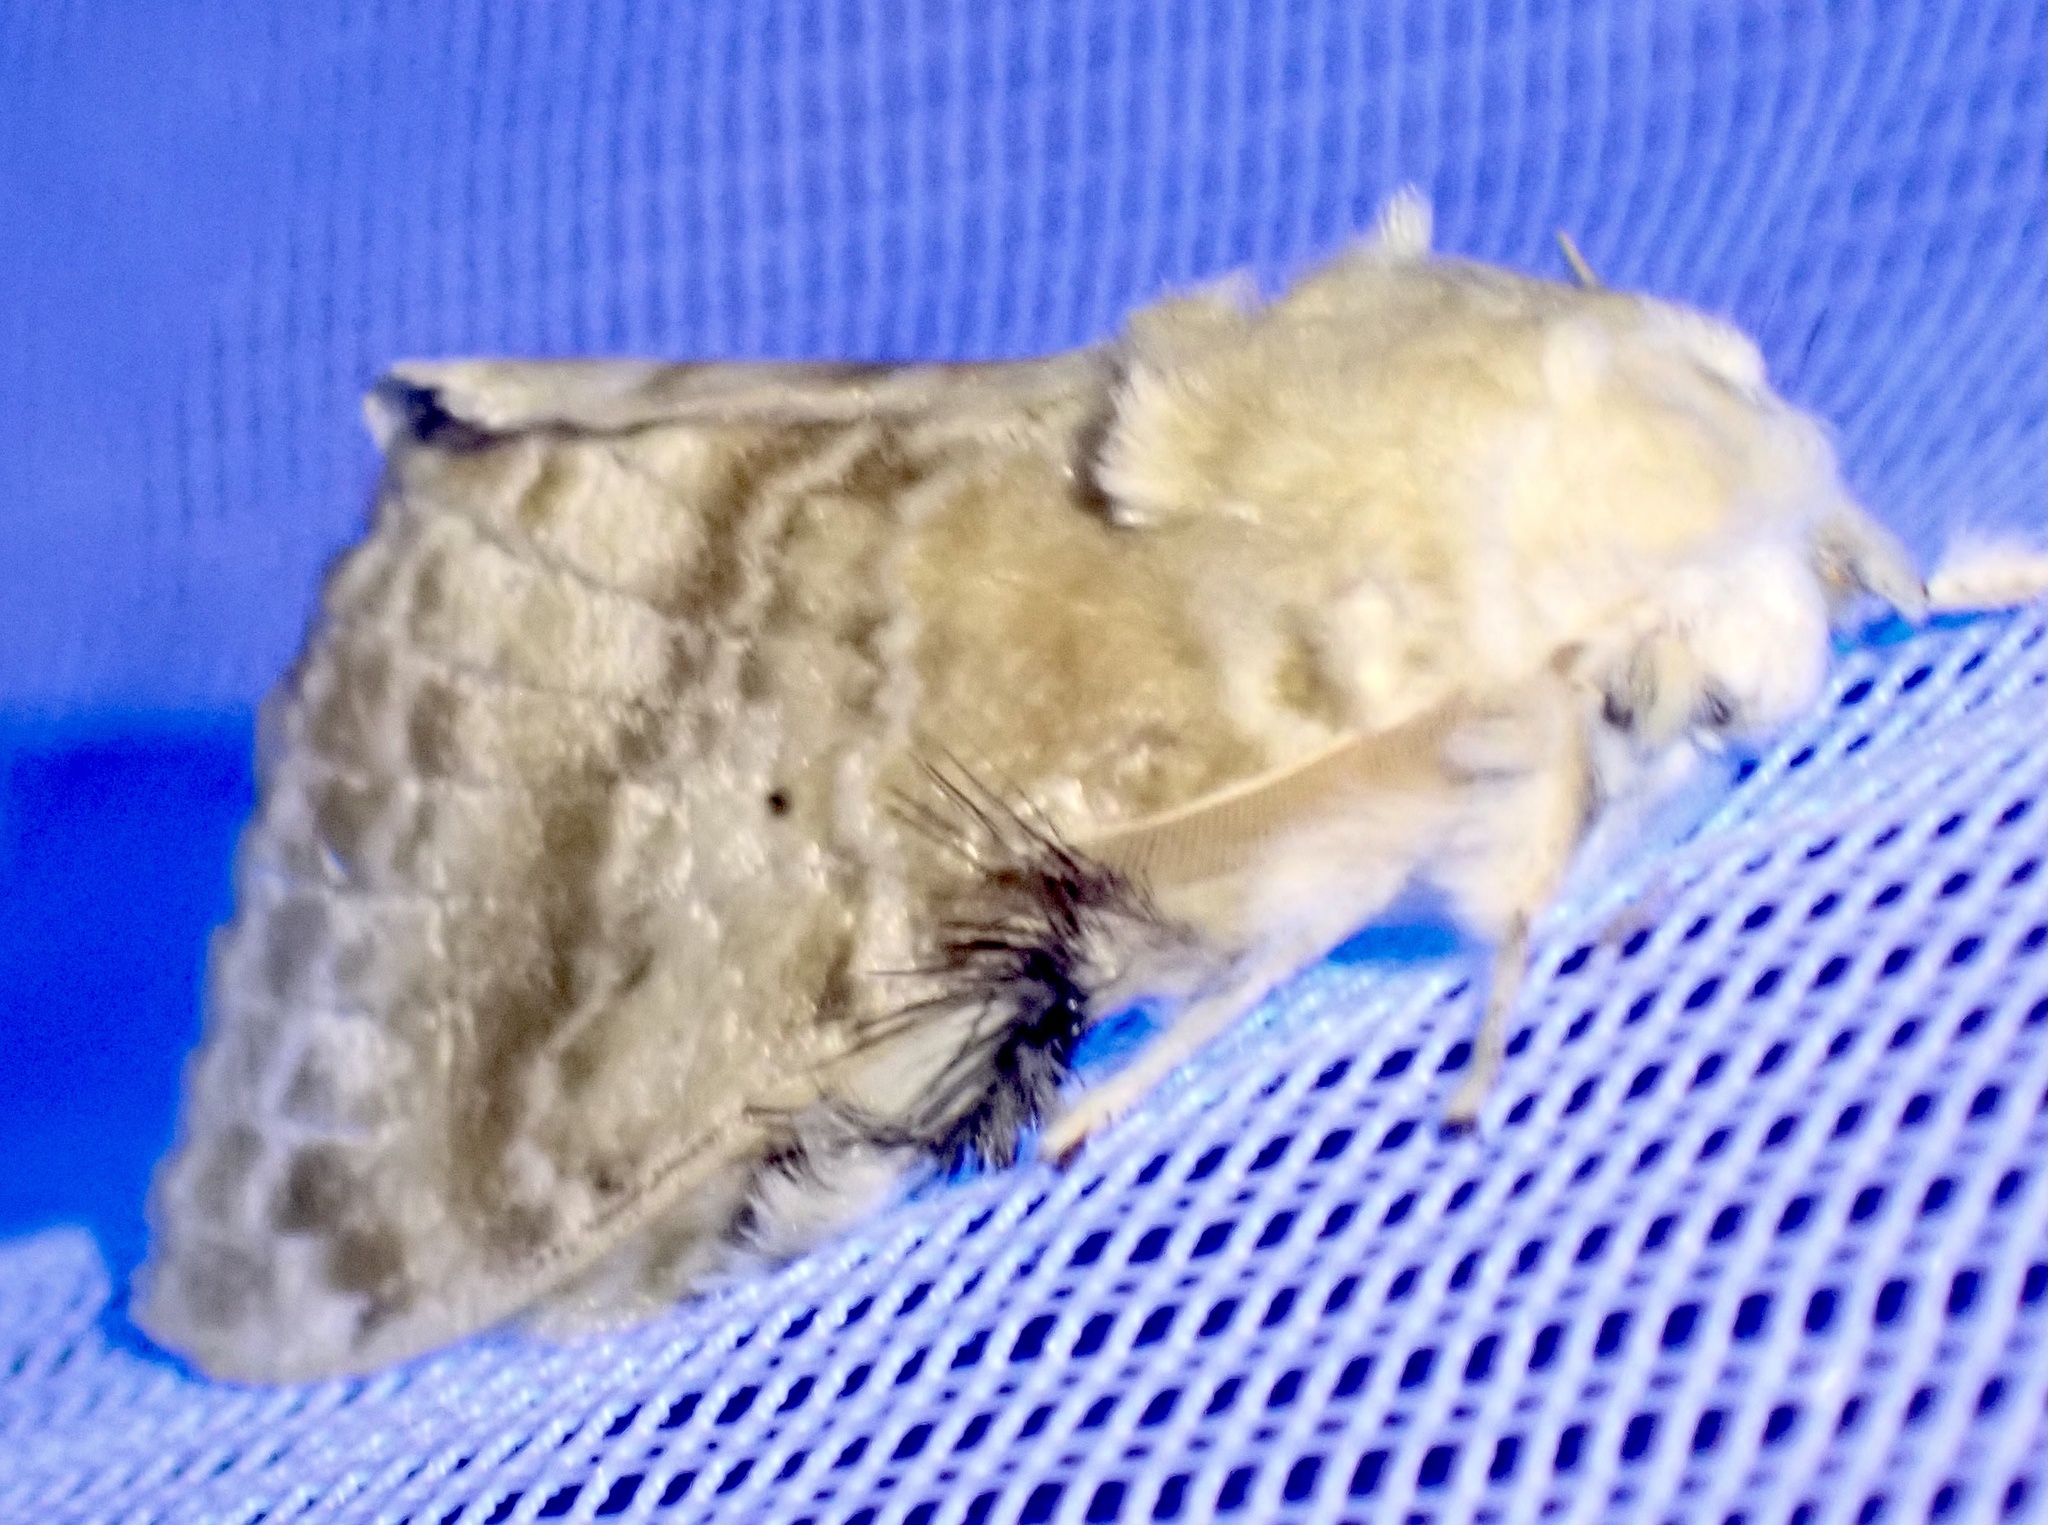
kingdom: Animalia
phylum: Arthropoda
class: Insecta
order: Lepidoptera
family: Lasiocampidae
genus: Eucraera
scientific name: Eucraera magna
